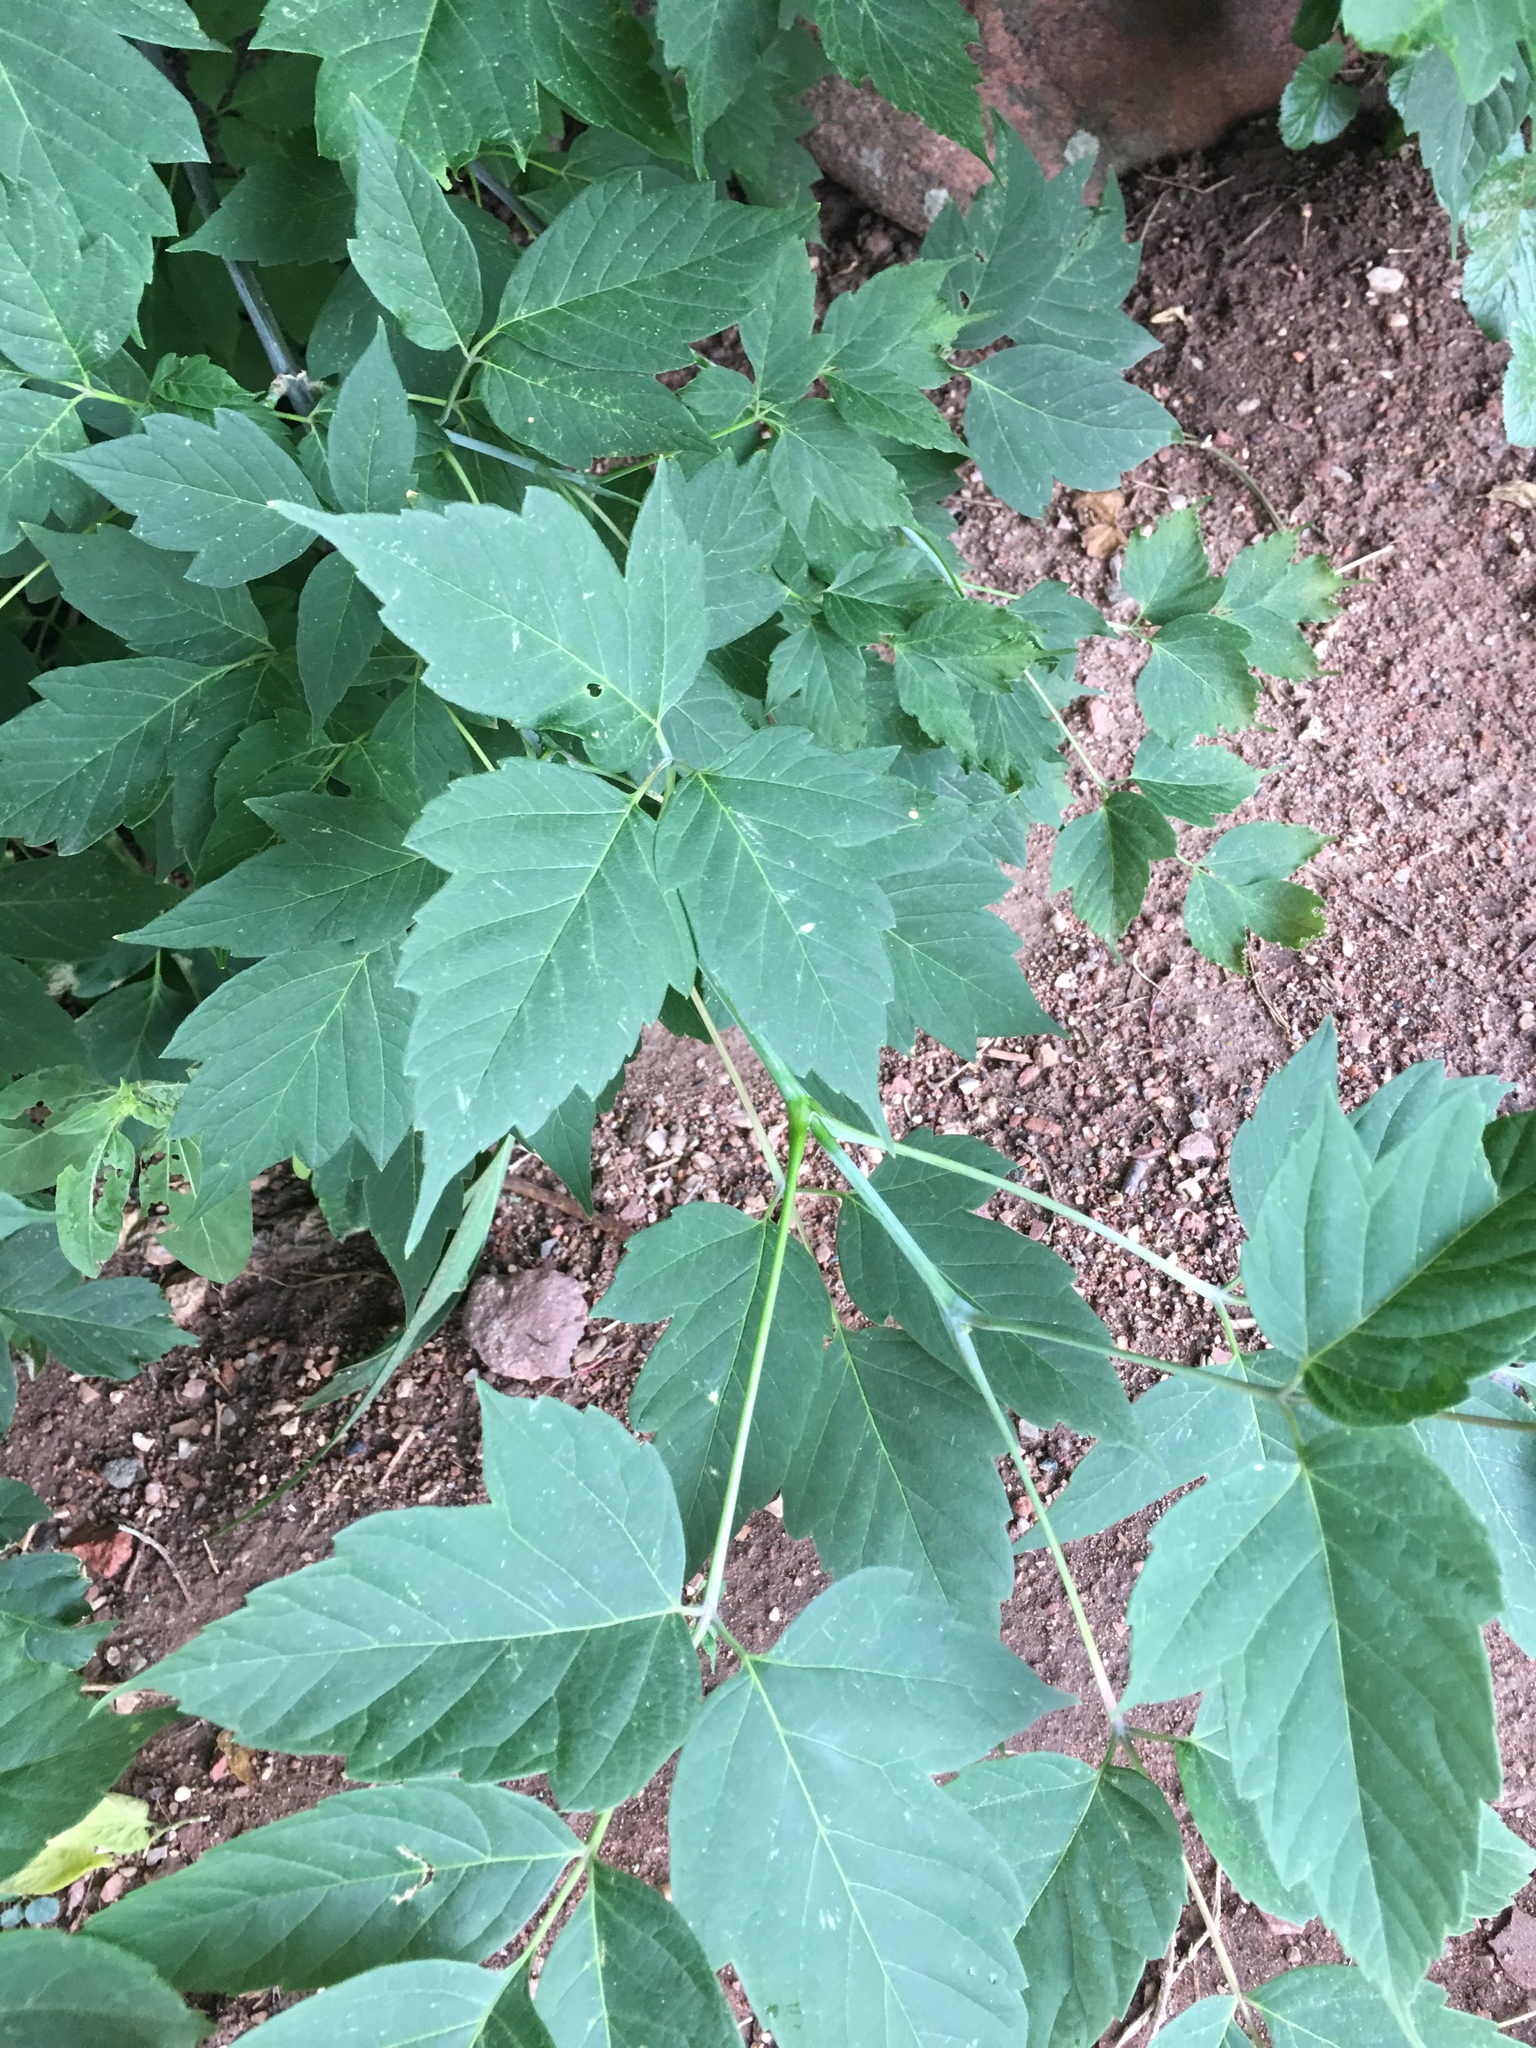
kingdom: Plantae
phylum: Tracheophyta
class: Magnoliopsida
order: Sapindales
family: Sapindaceae
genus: Acer
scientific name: Acer negundo
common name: Ashleaf maple
